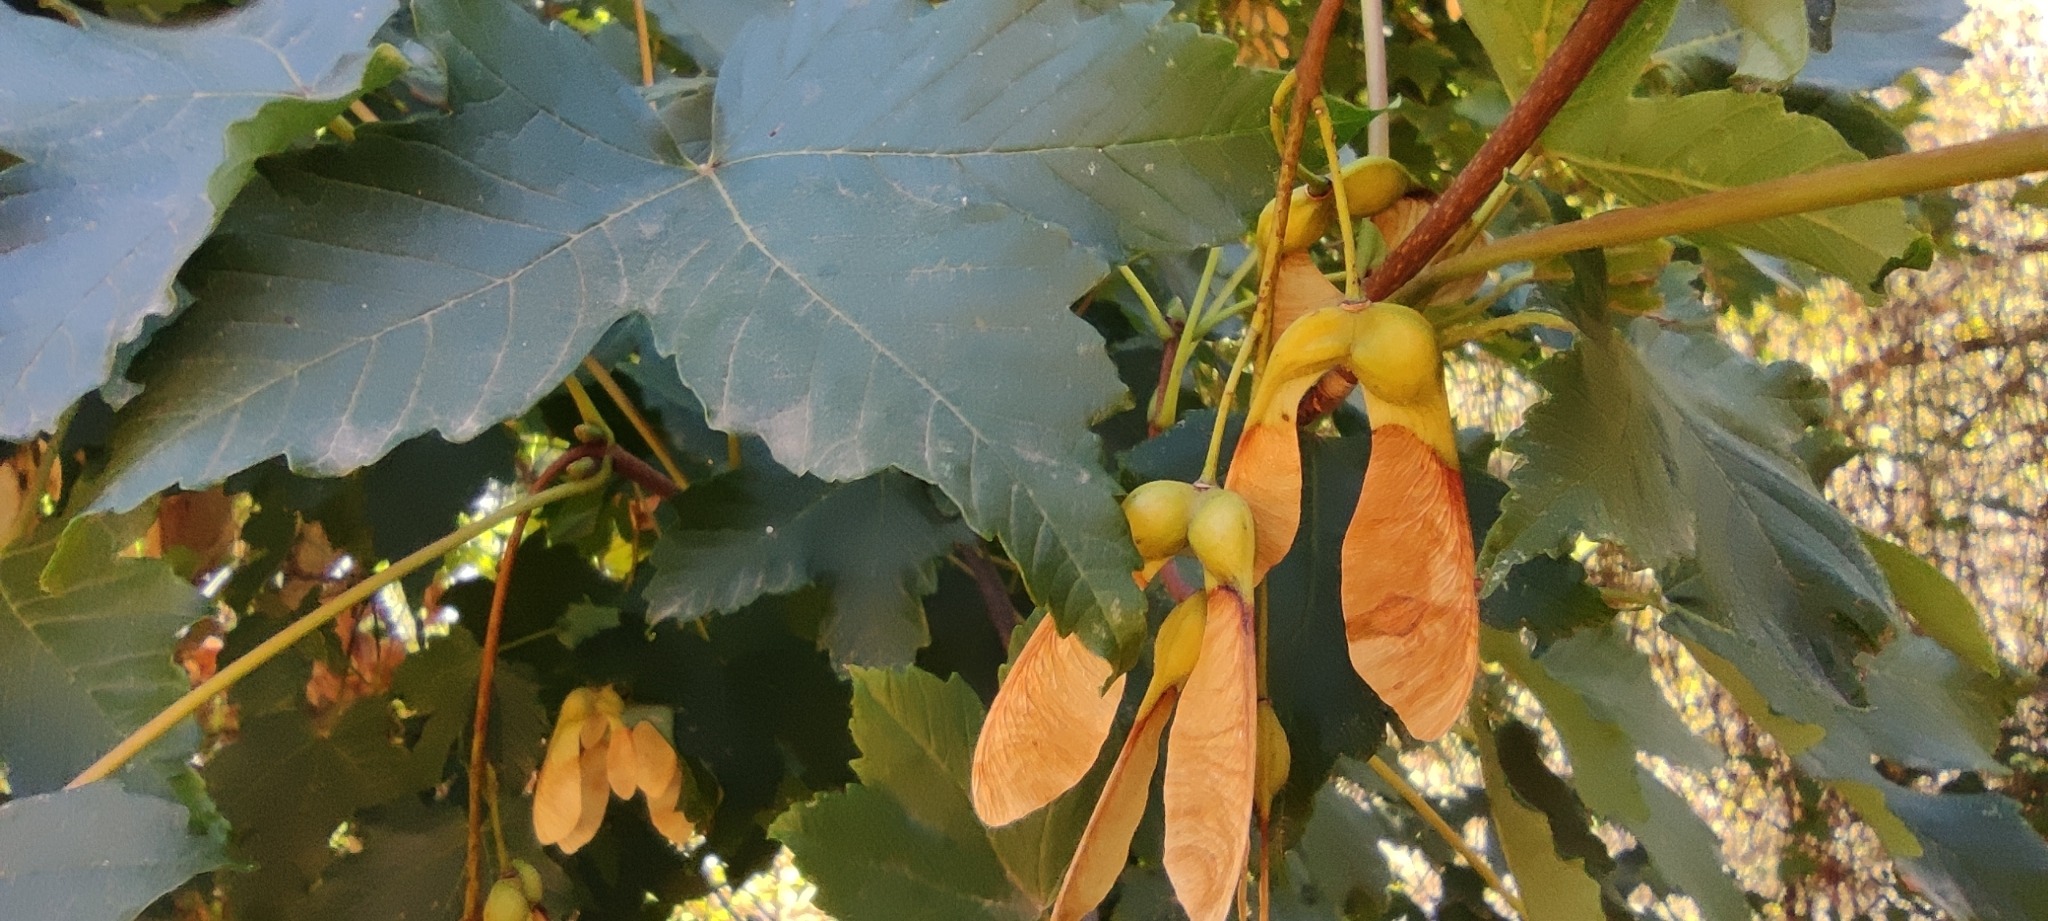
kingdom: Plantae
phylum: Tracheophyta
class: Magnoliopsida
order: Sapindales
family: Sapindaceae
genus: Acer
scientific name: Acer pseudoplatanus
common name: Sycamore
